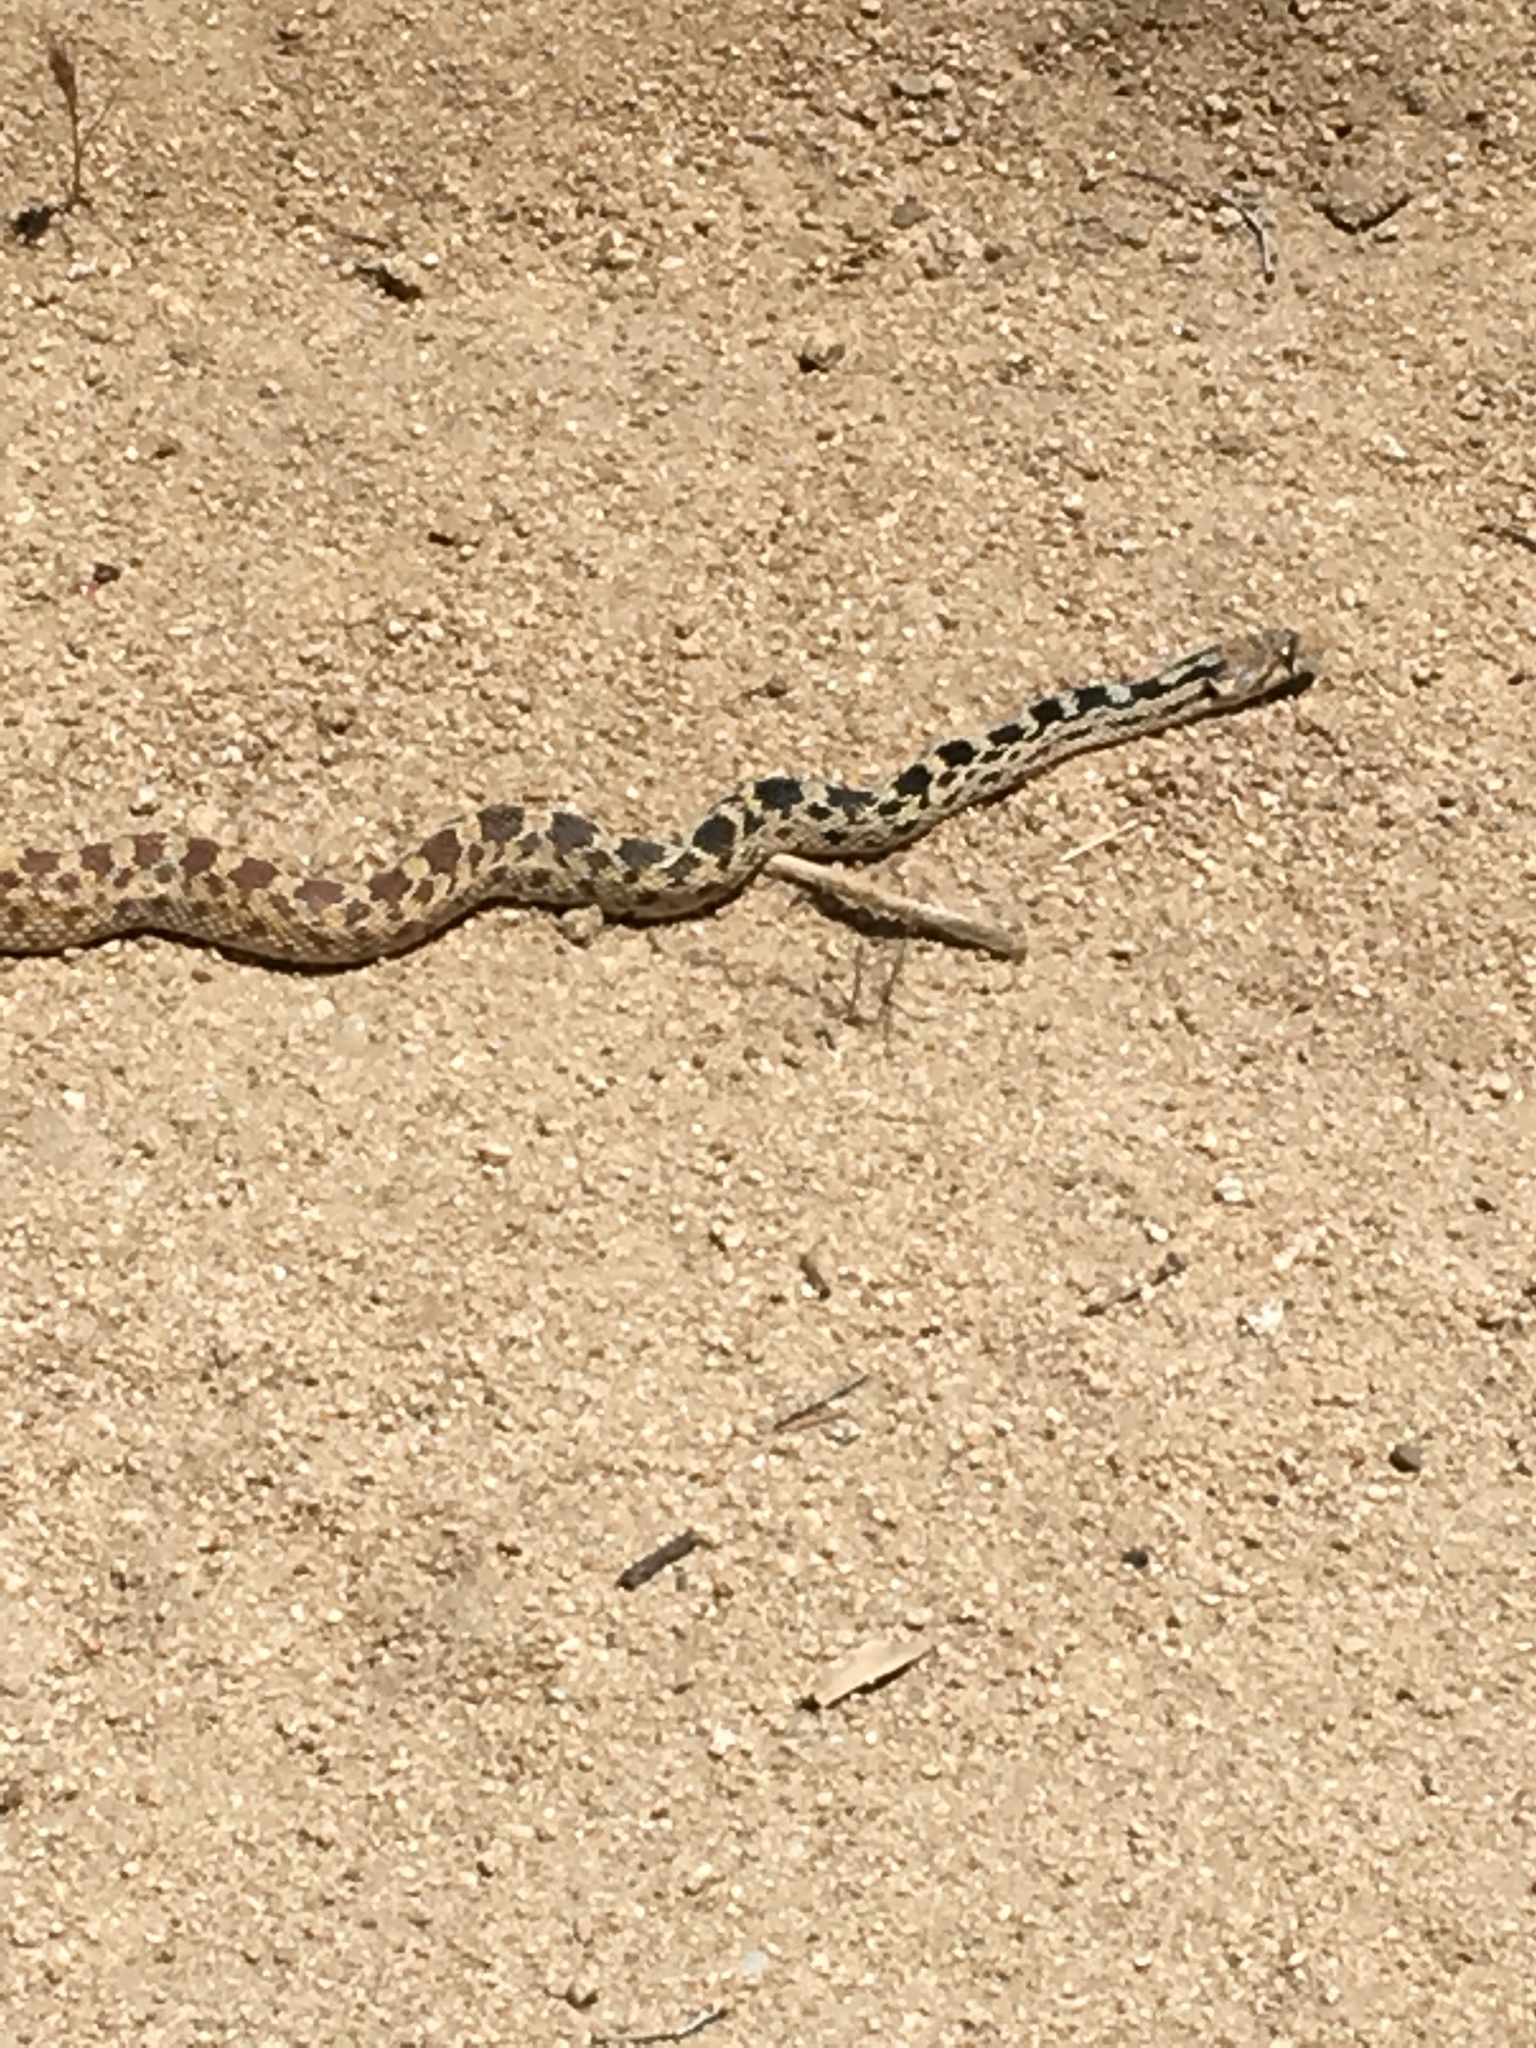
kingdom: Animalia
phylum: Chordata
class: Squamata
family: Colubridae
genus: Pituophis
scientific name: Pituophis catenifer
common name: Gopher snake
